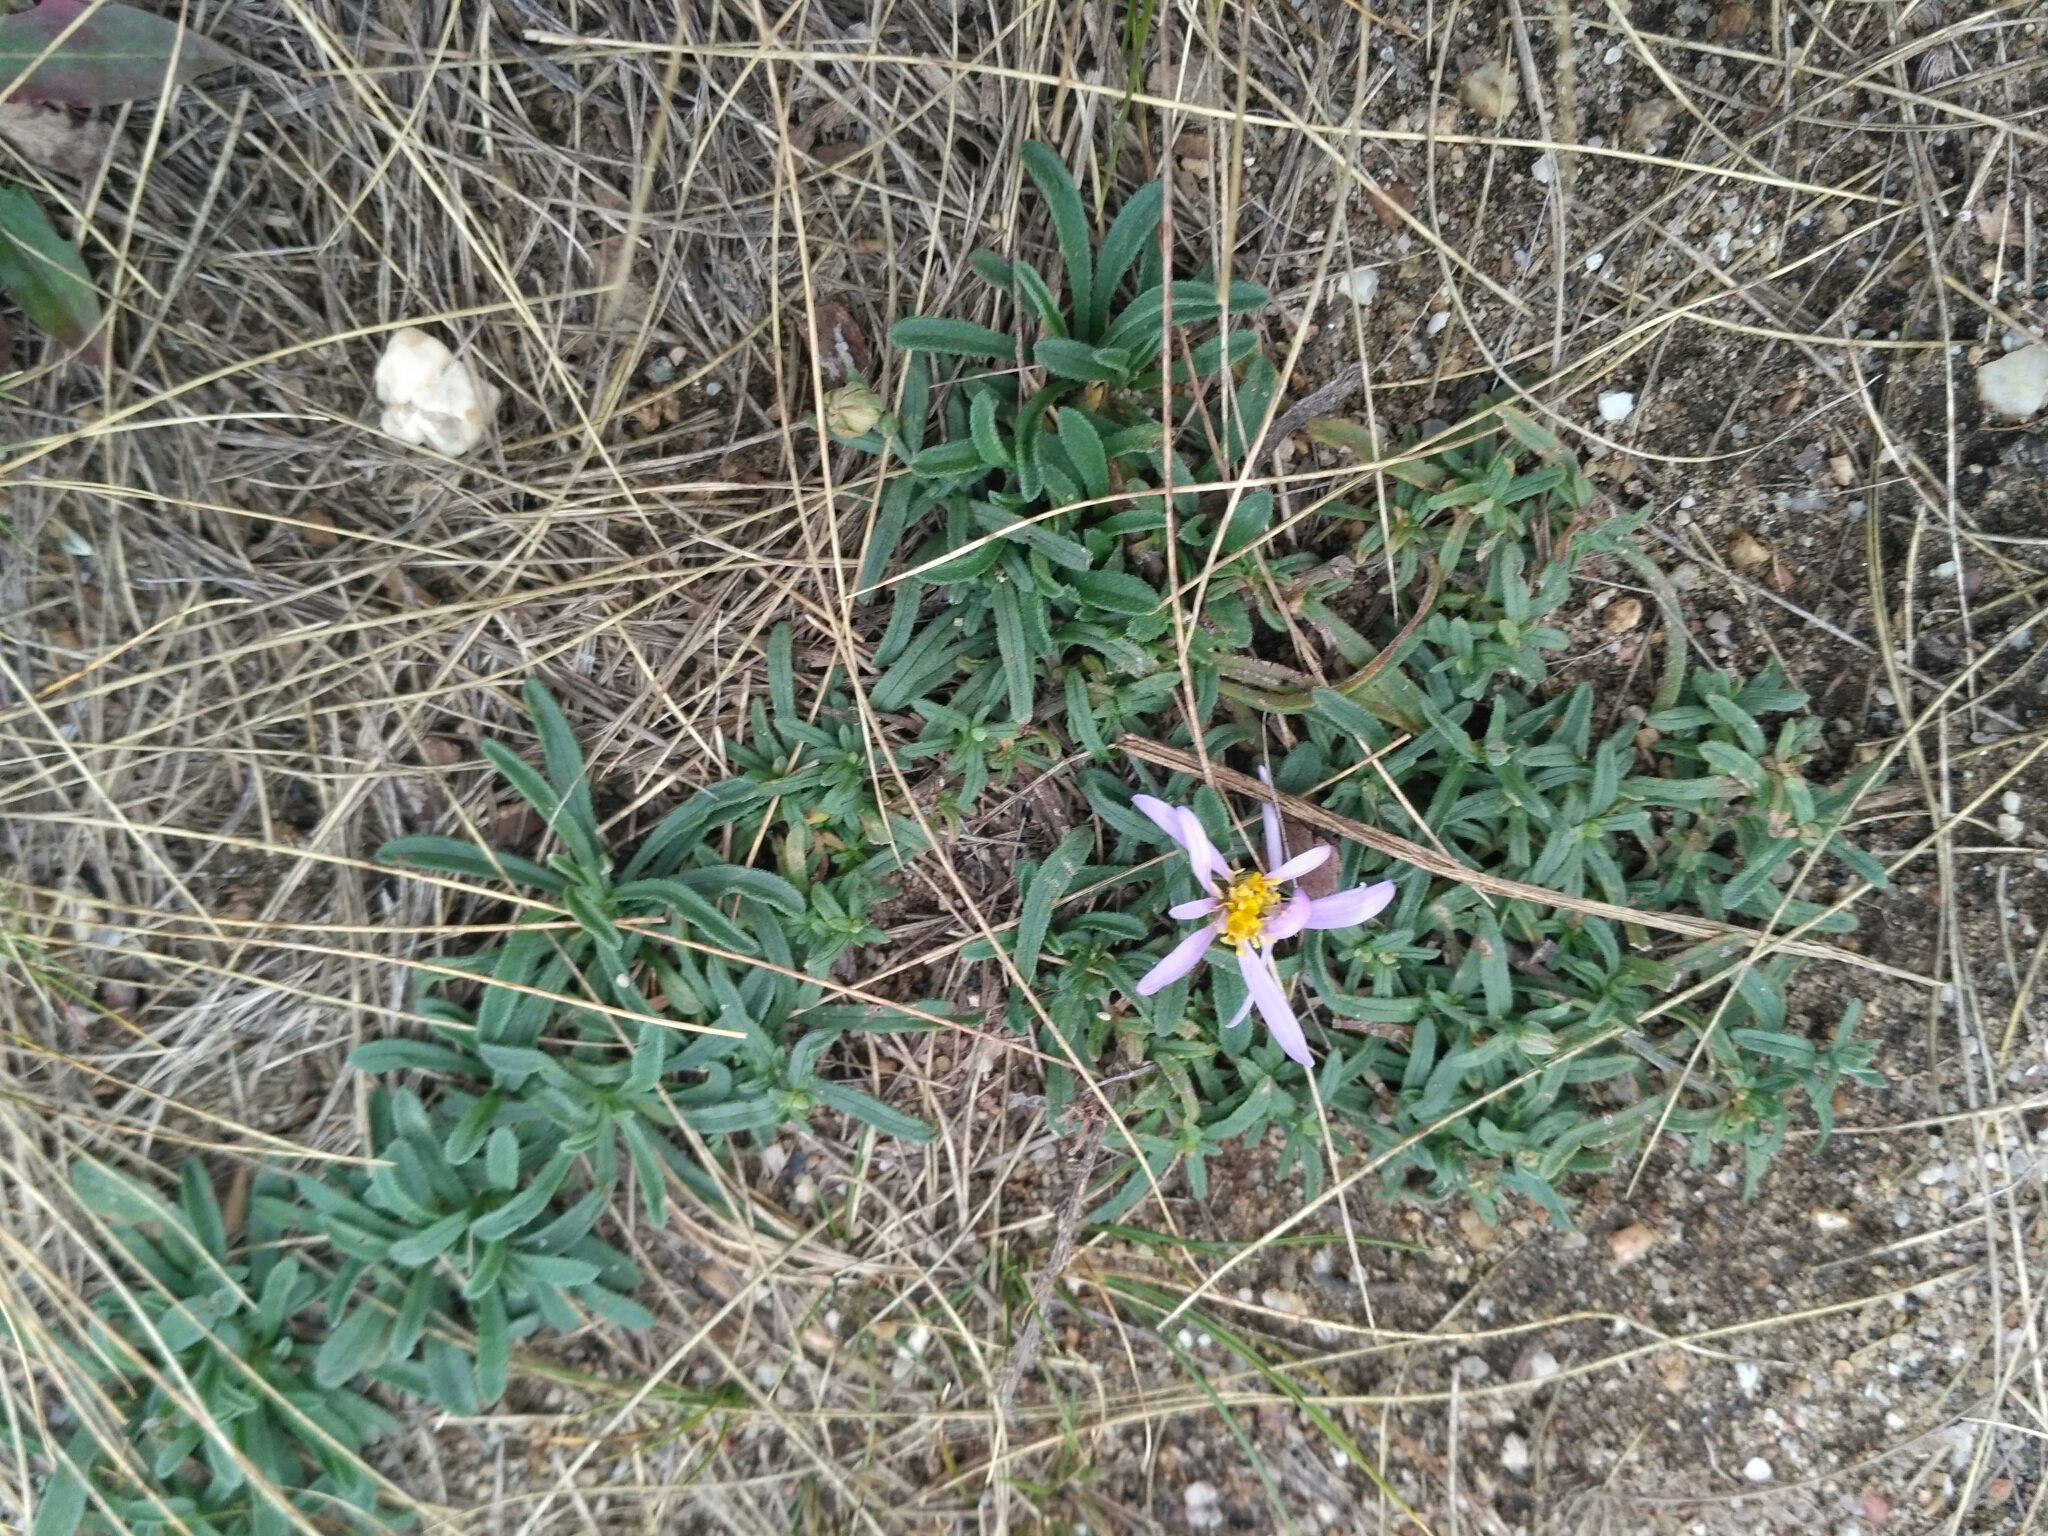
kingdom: Plantae
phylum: Tracheophyta
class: Magnoliopsida
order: Asterales
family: Asteraceae
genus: Heteropappus
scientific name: Heteropappus altaicus
